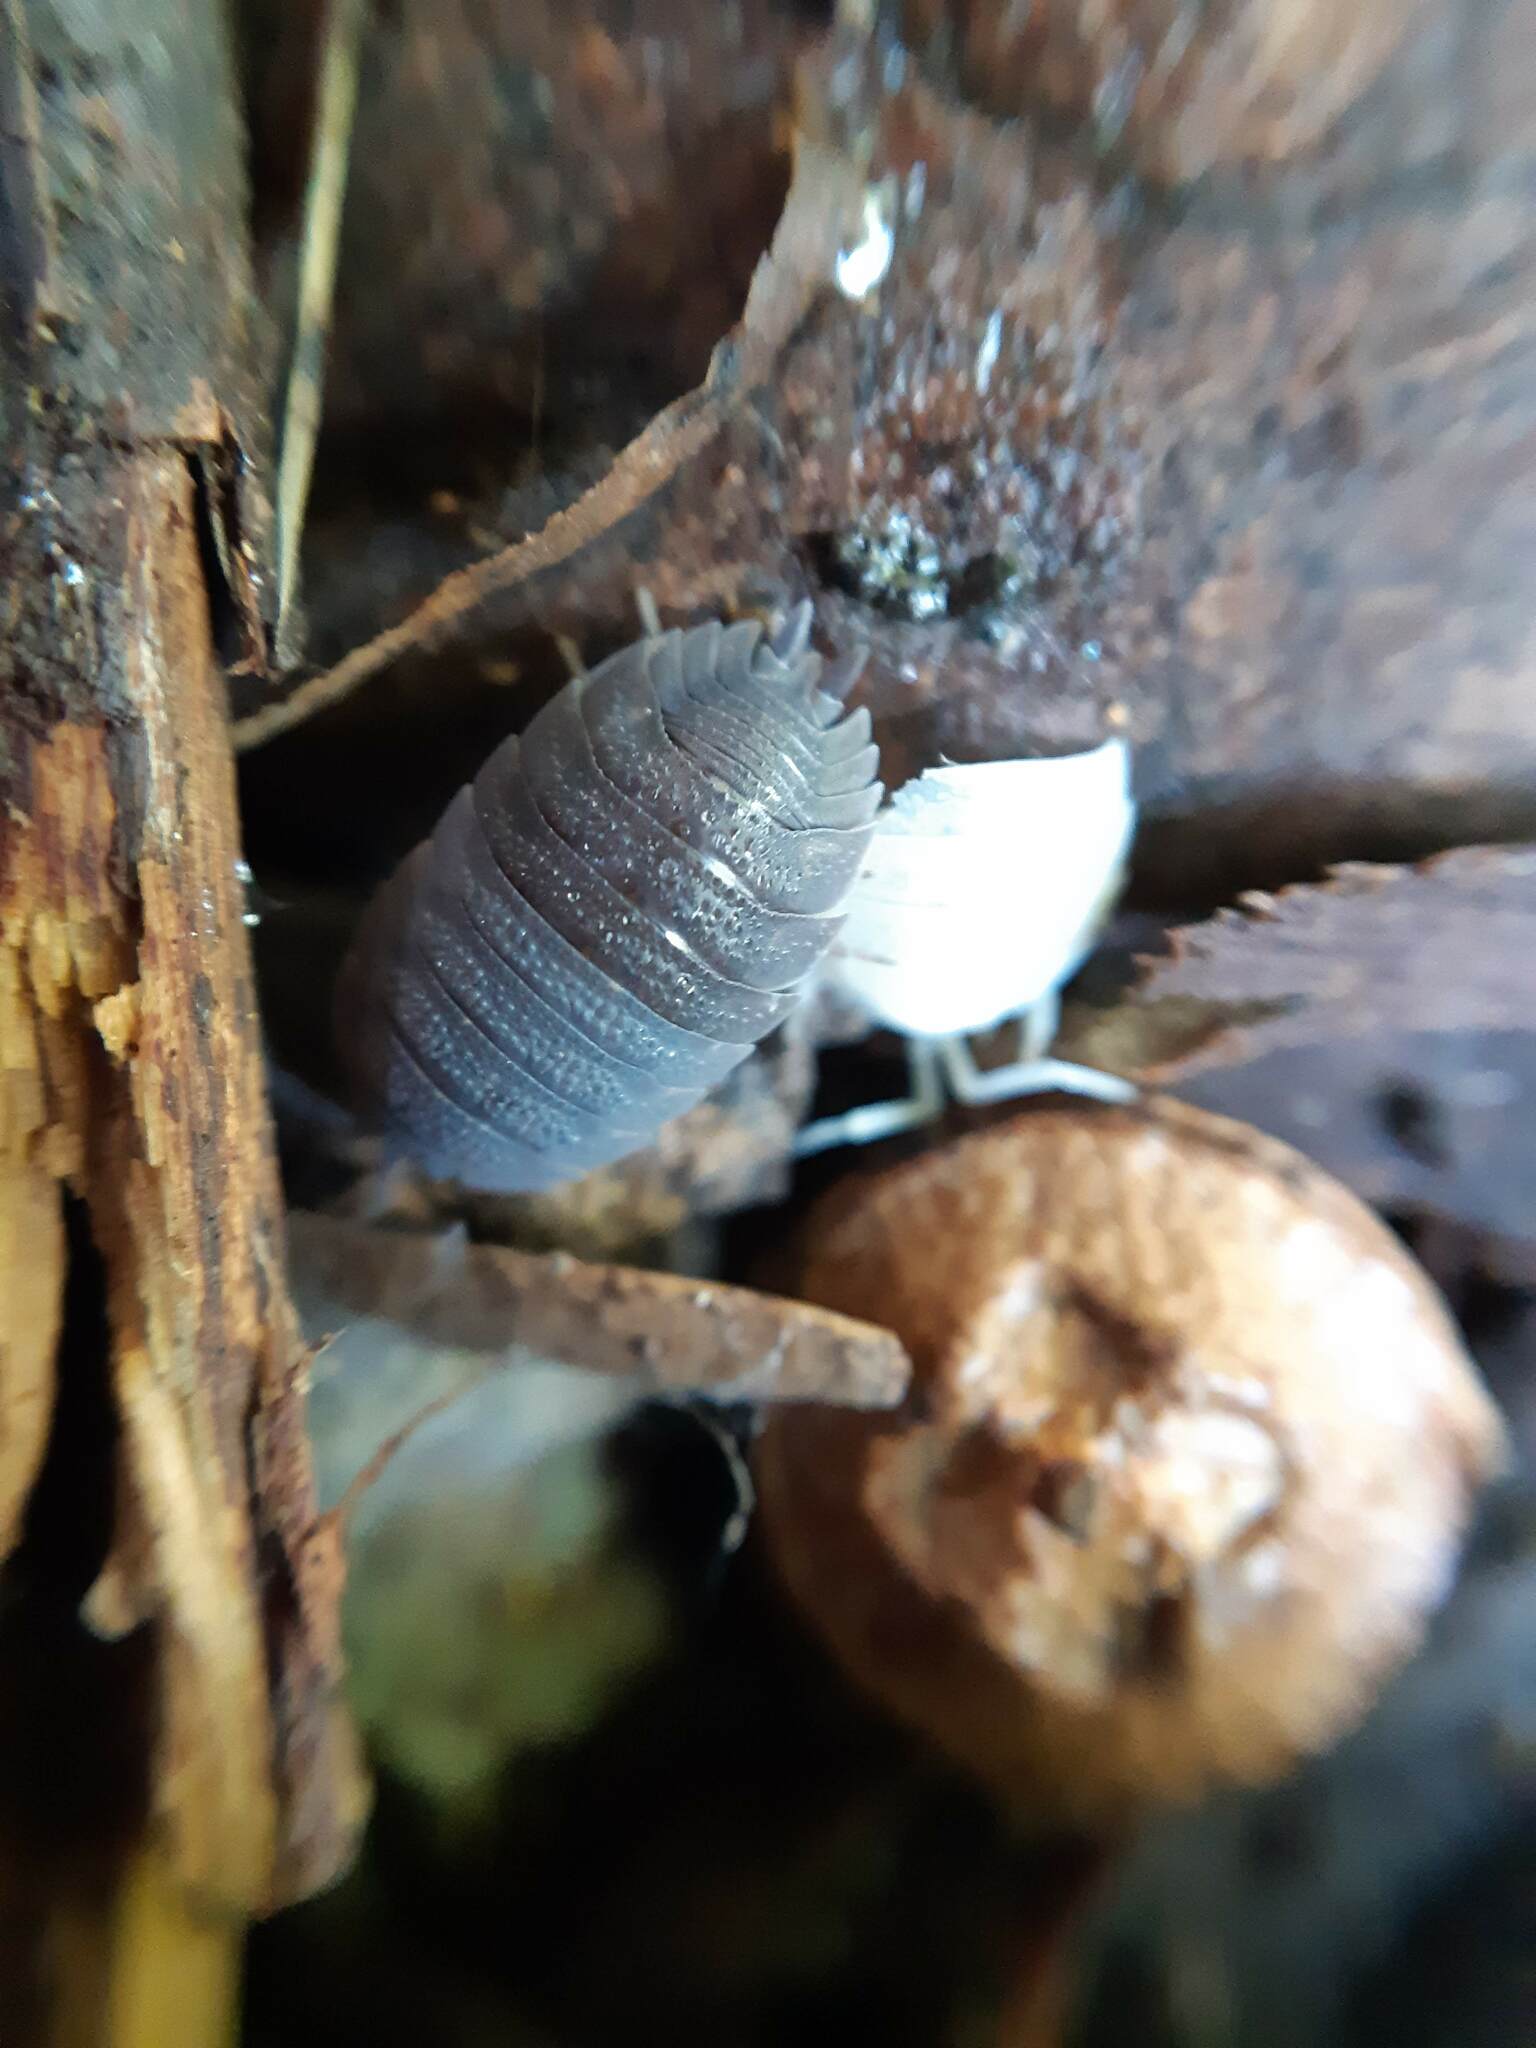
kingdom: Animalia
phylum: Arthropoda
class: Malacostraca
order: Isopoda
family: Porcellionidae
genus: Porcellio
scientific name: Porcellio scaber
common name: Common rough woodlouse
